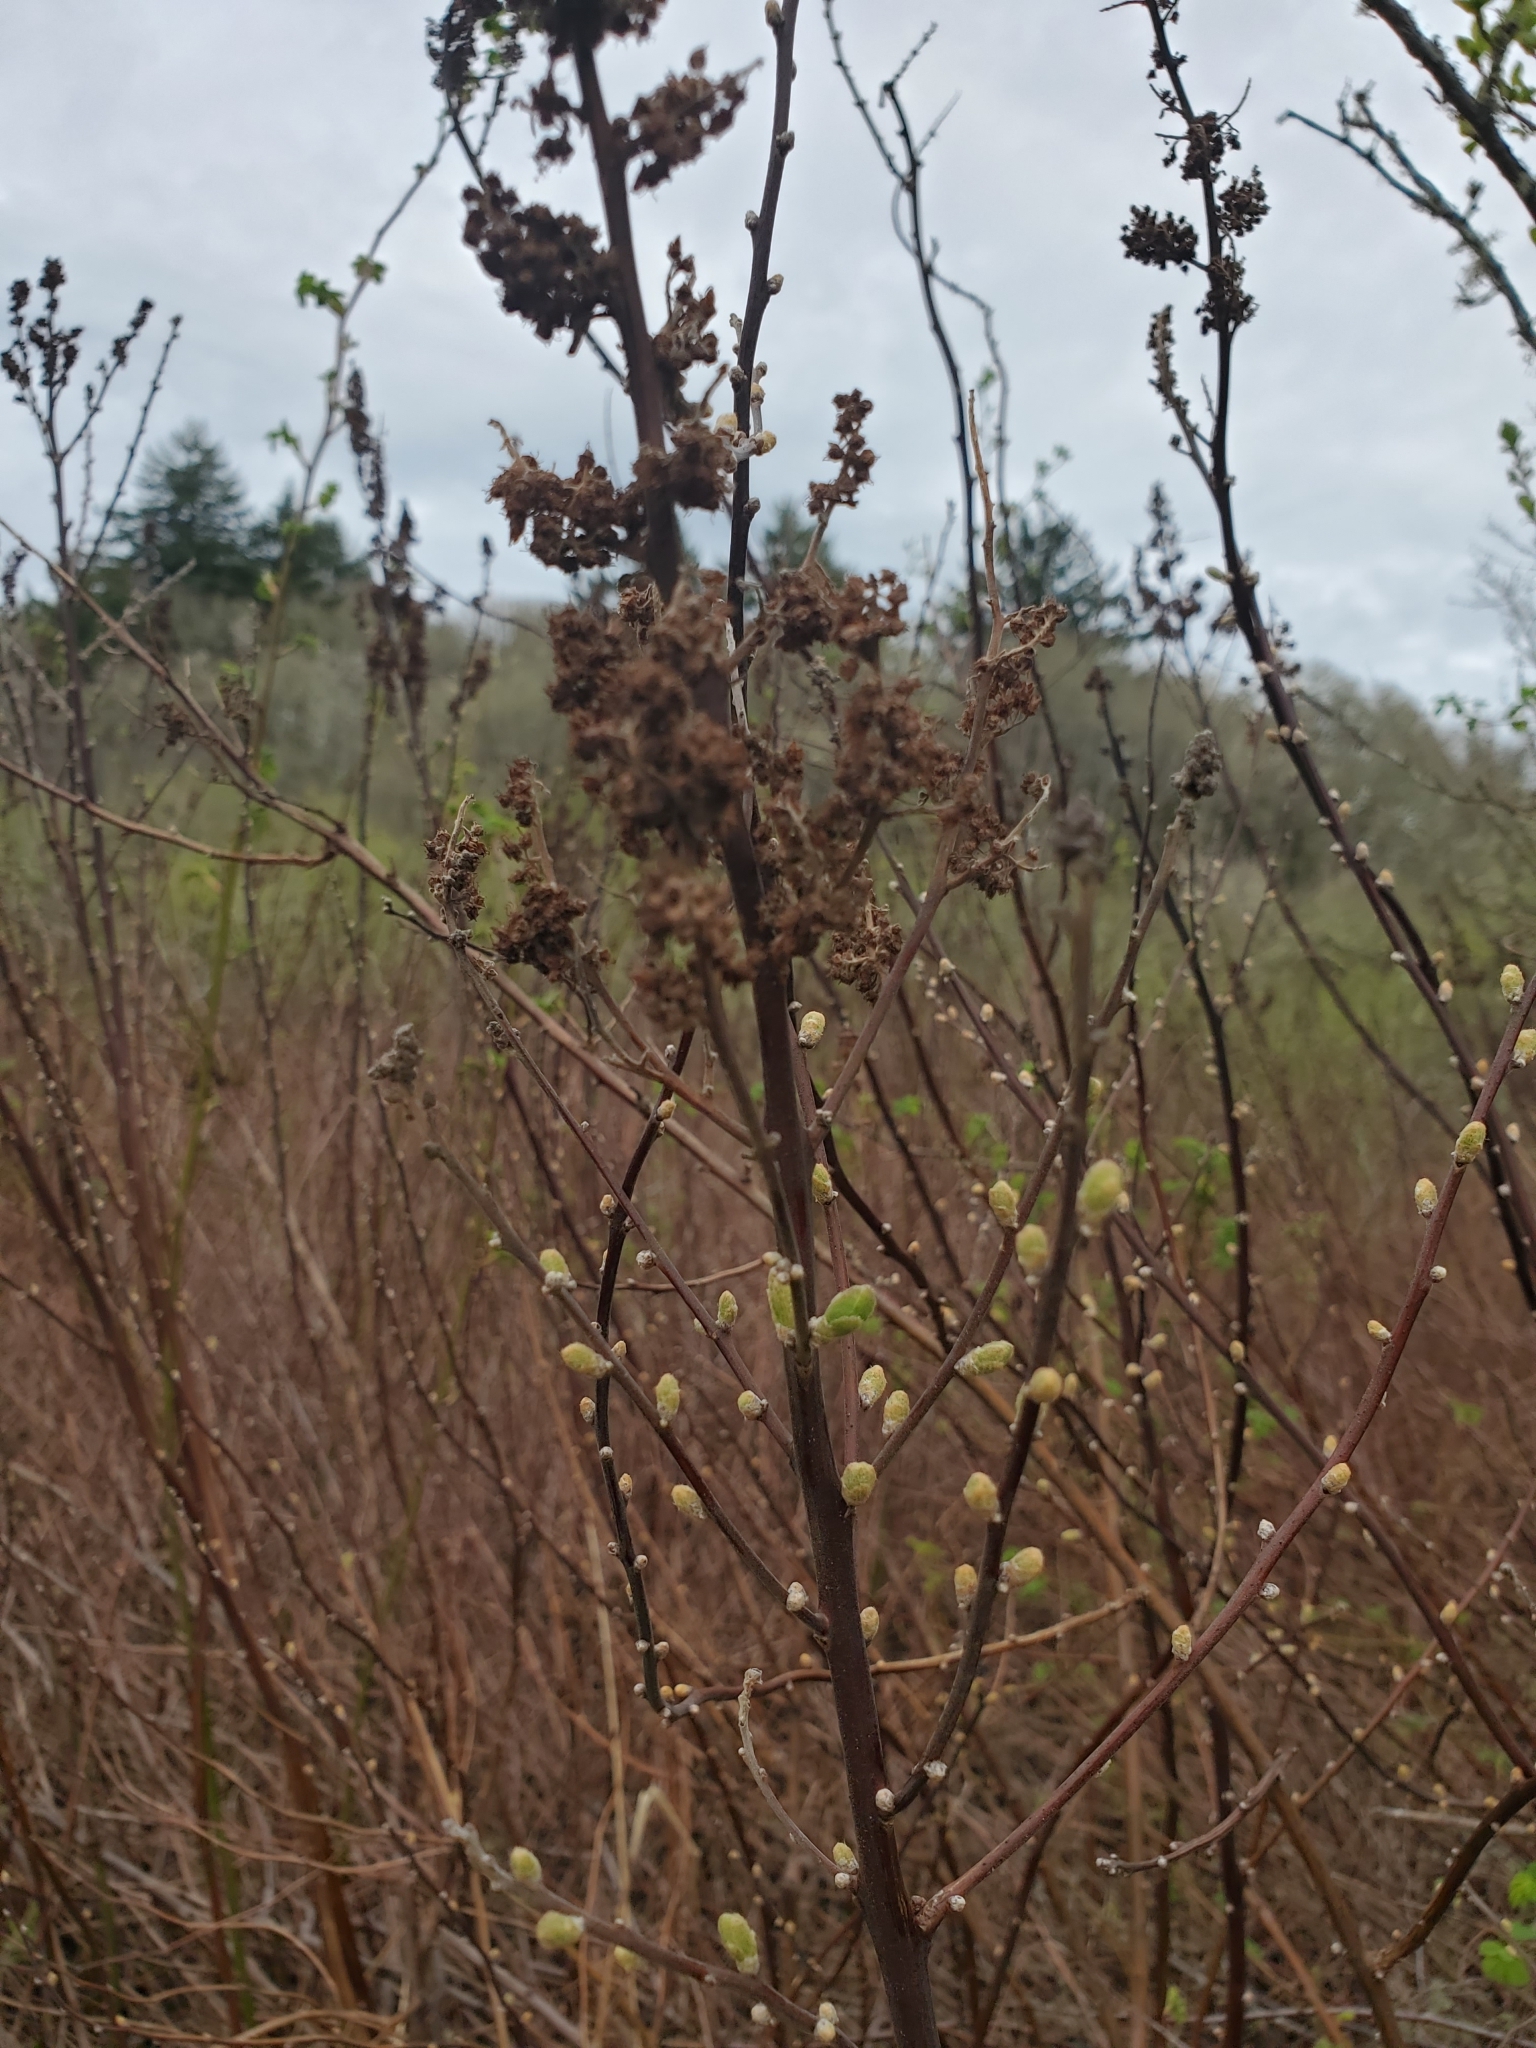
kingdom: Plantae
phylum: Tracheophyta
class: Magnoliopsida
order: Rosales
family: Rosaceae
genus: Spiraea
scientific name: Spiraea douglasii
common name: Steeplebush
